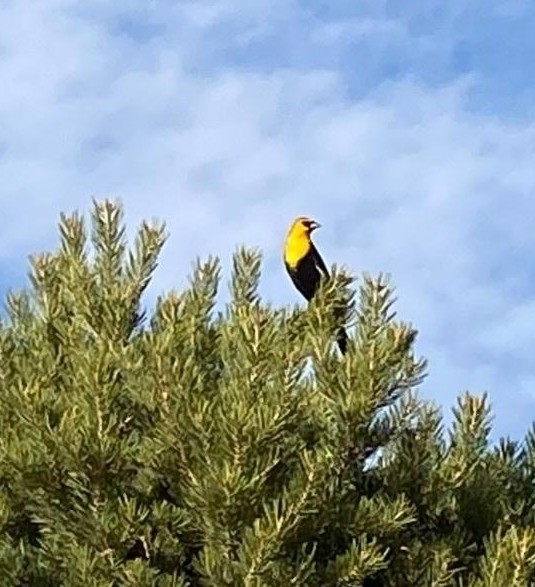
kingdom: Animalia
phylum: Chordata
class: Aves
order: Passeriformes
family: Icteridae
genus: Xanthocephalus
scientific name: Xanthocephalus xanthocephalus
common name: Yellow-headed blackbird
